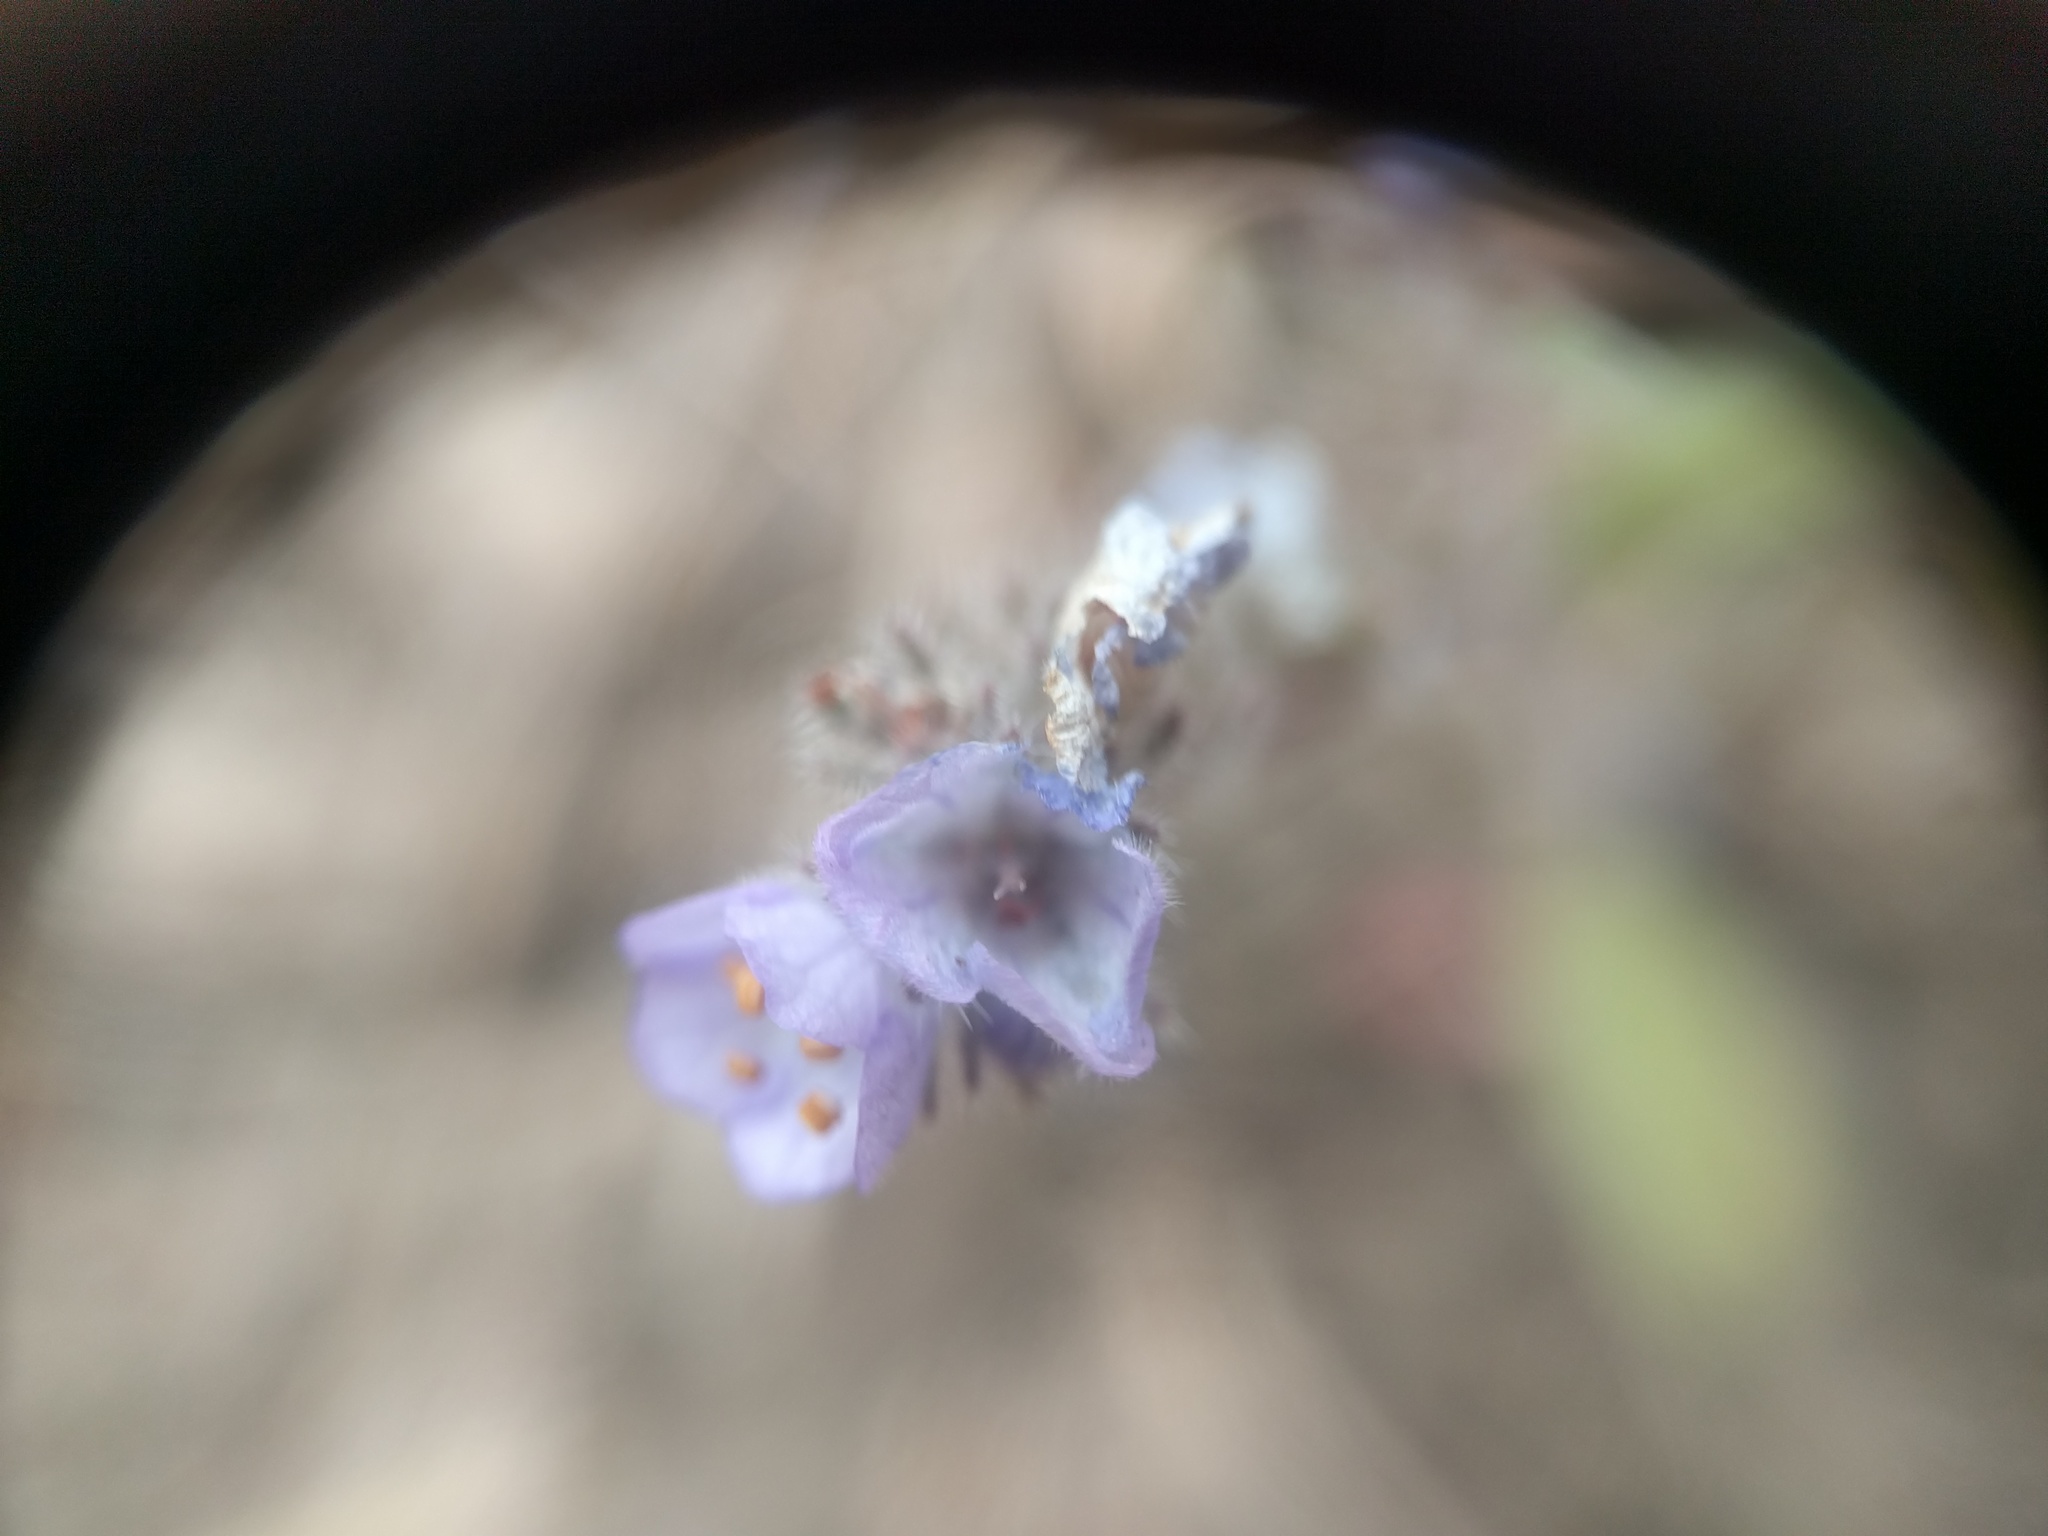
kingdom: Plantae
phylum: Tracheophyta
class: Magnoliopsida
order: Boraginales
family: Hydrophyllaceae
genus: Phacelia
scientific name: Phacelia breweri
